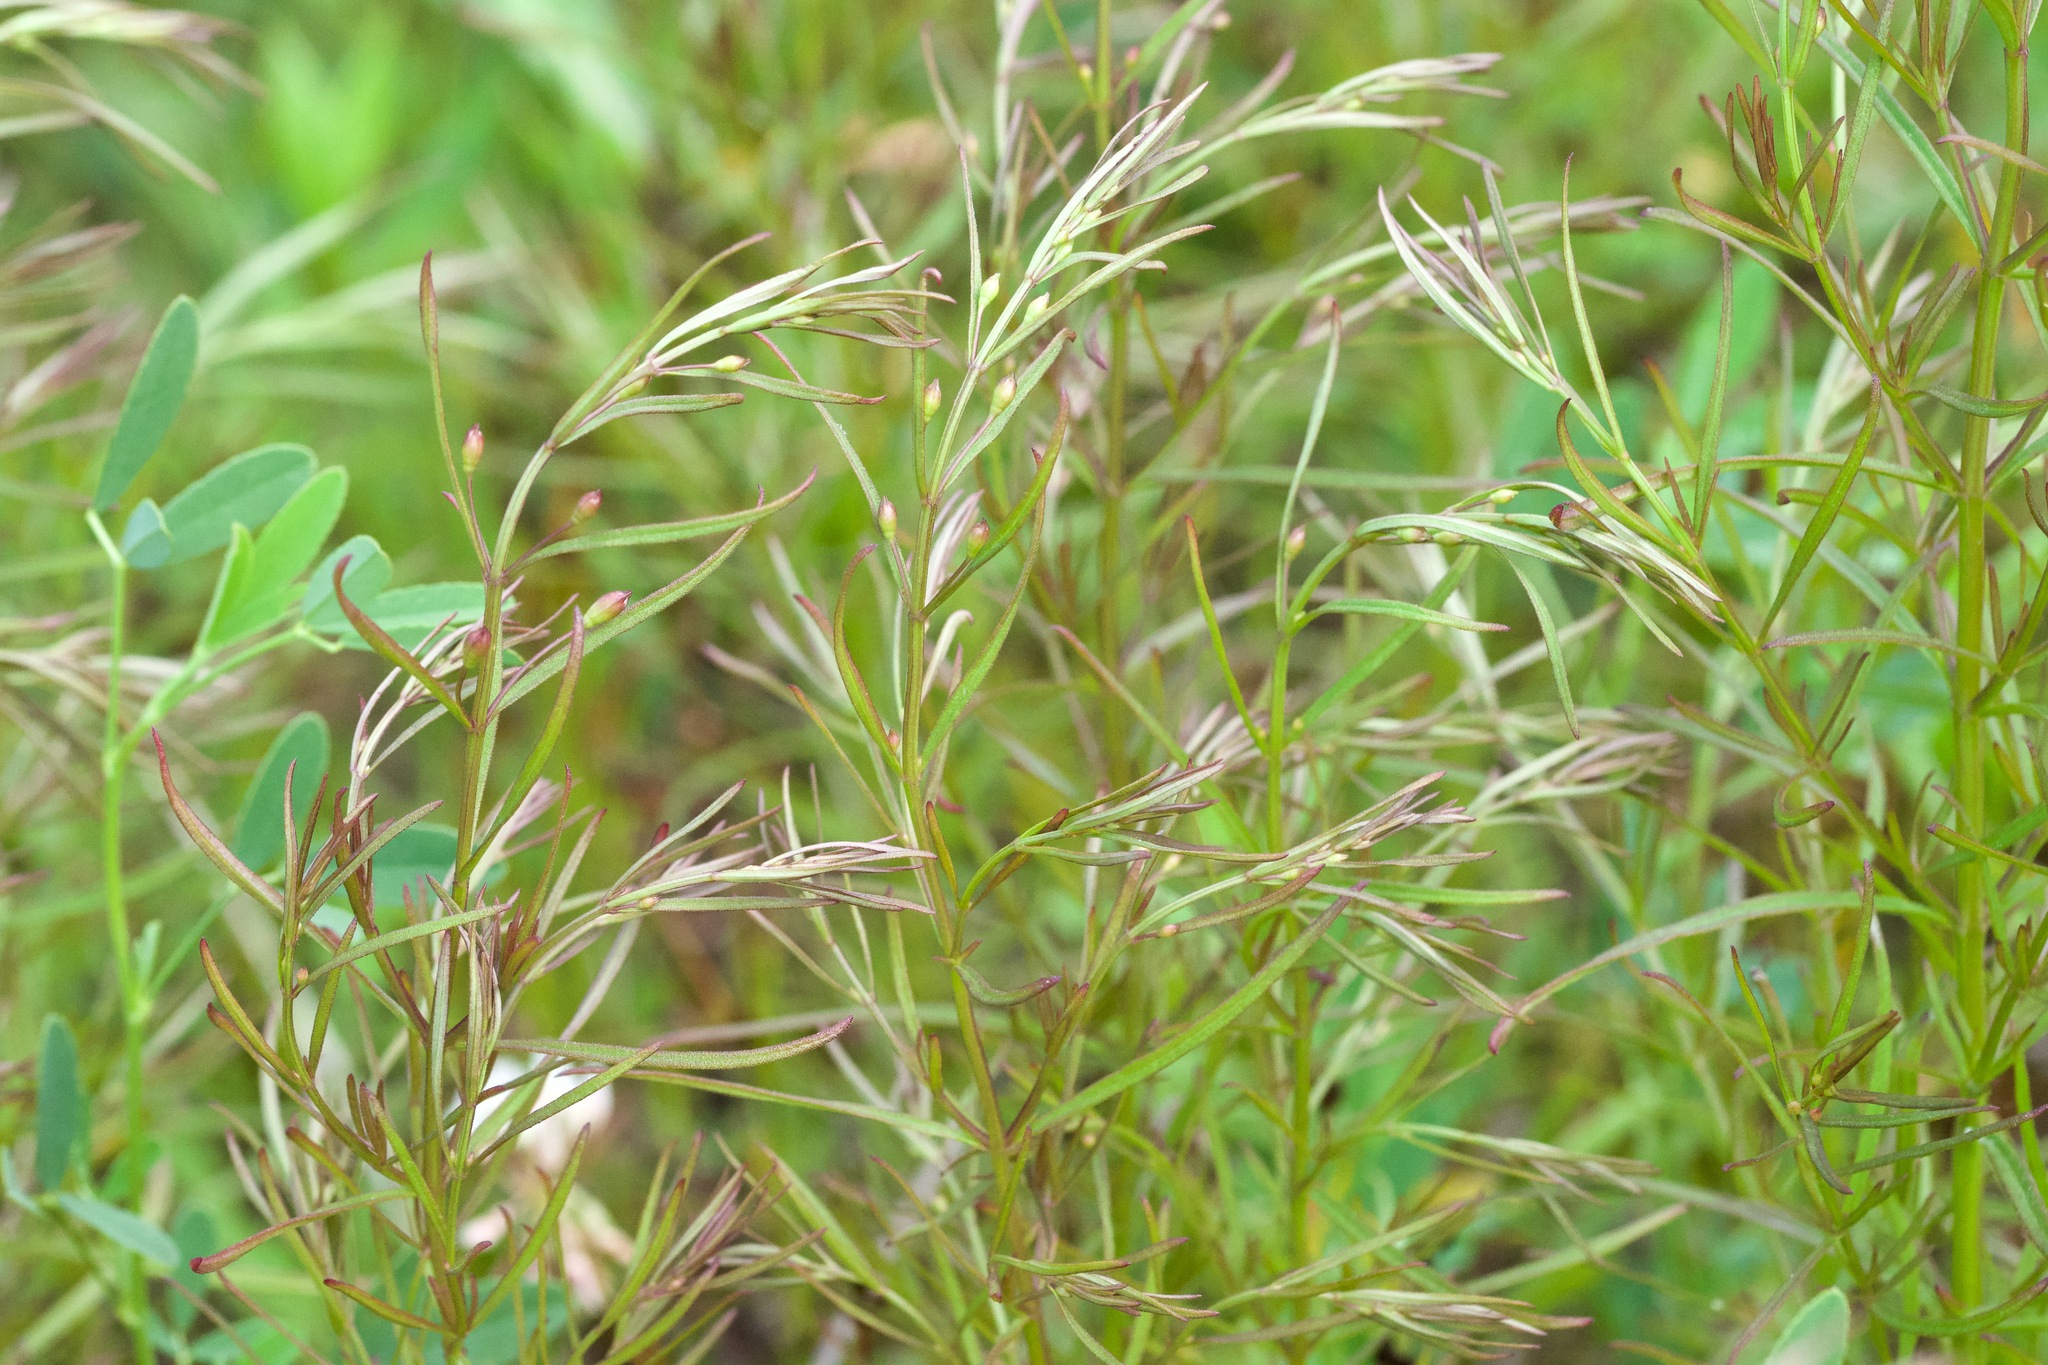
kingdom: Plantae
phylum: Tracheophyta
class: Magnoliopsida
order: Lamiales
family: Orobanchaceae
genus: Agalinis
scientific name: Agalinis tenuifolia
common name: Slender agalinis
